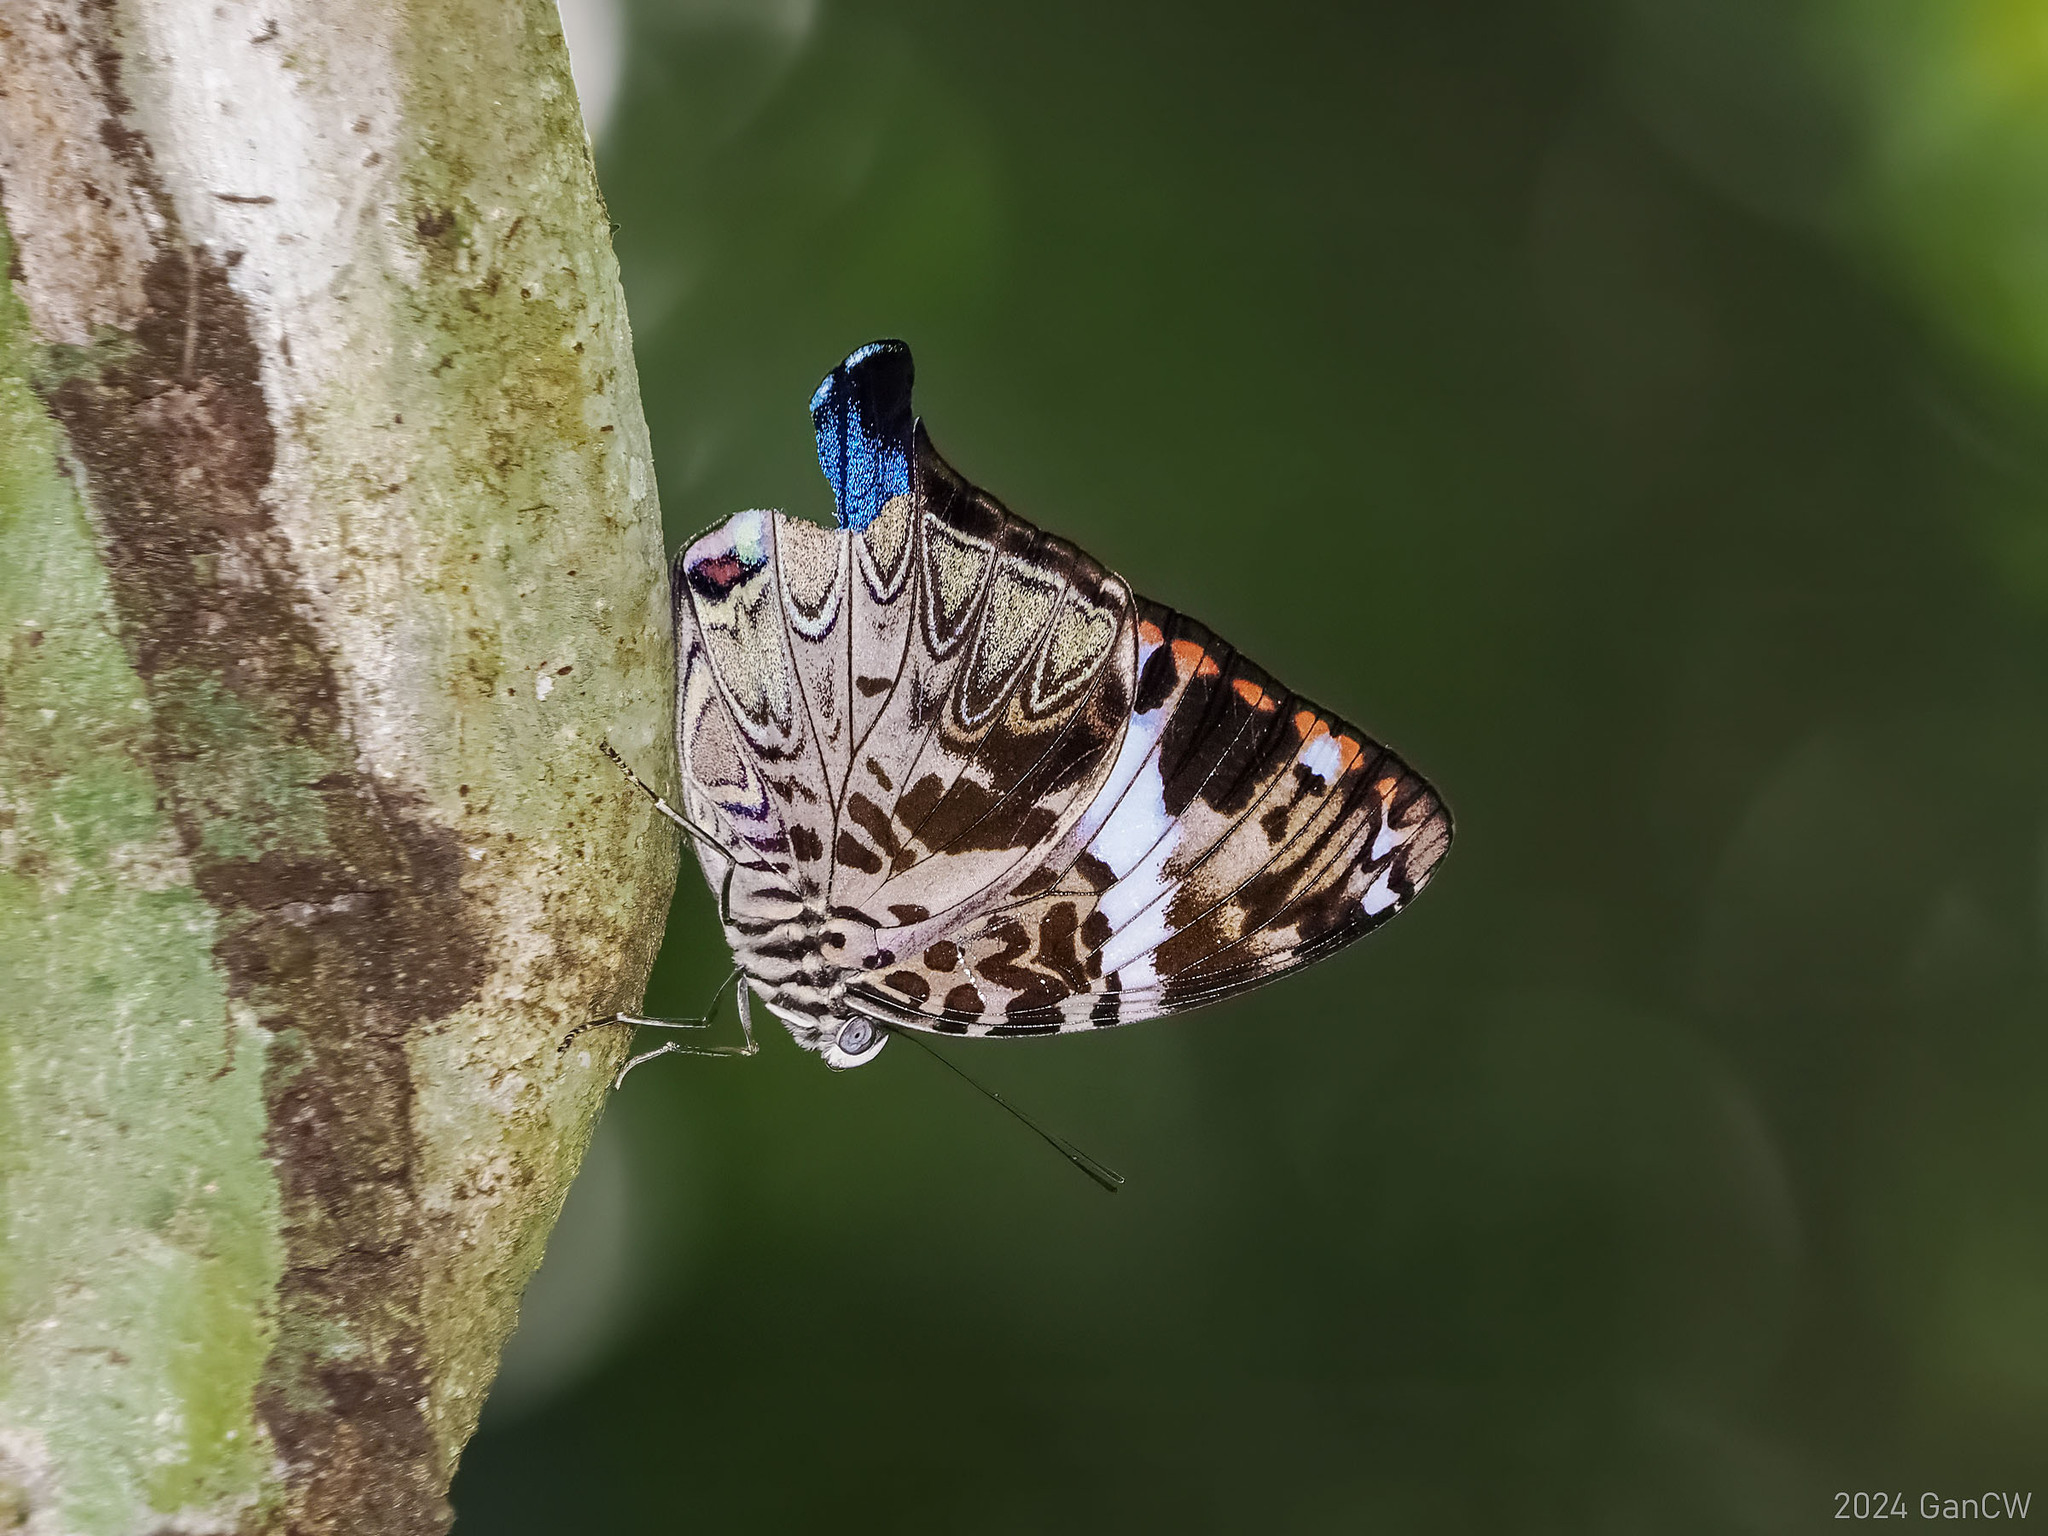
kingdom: Animalia
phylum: Arthropoda
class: Insecta
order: Lepidoptera
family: Nymphalidae
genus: Prothoe
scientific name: Prothoe franckii
